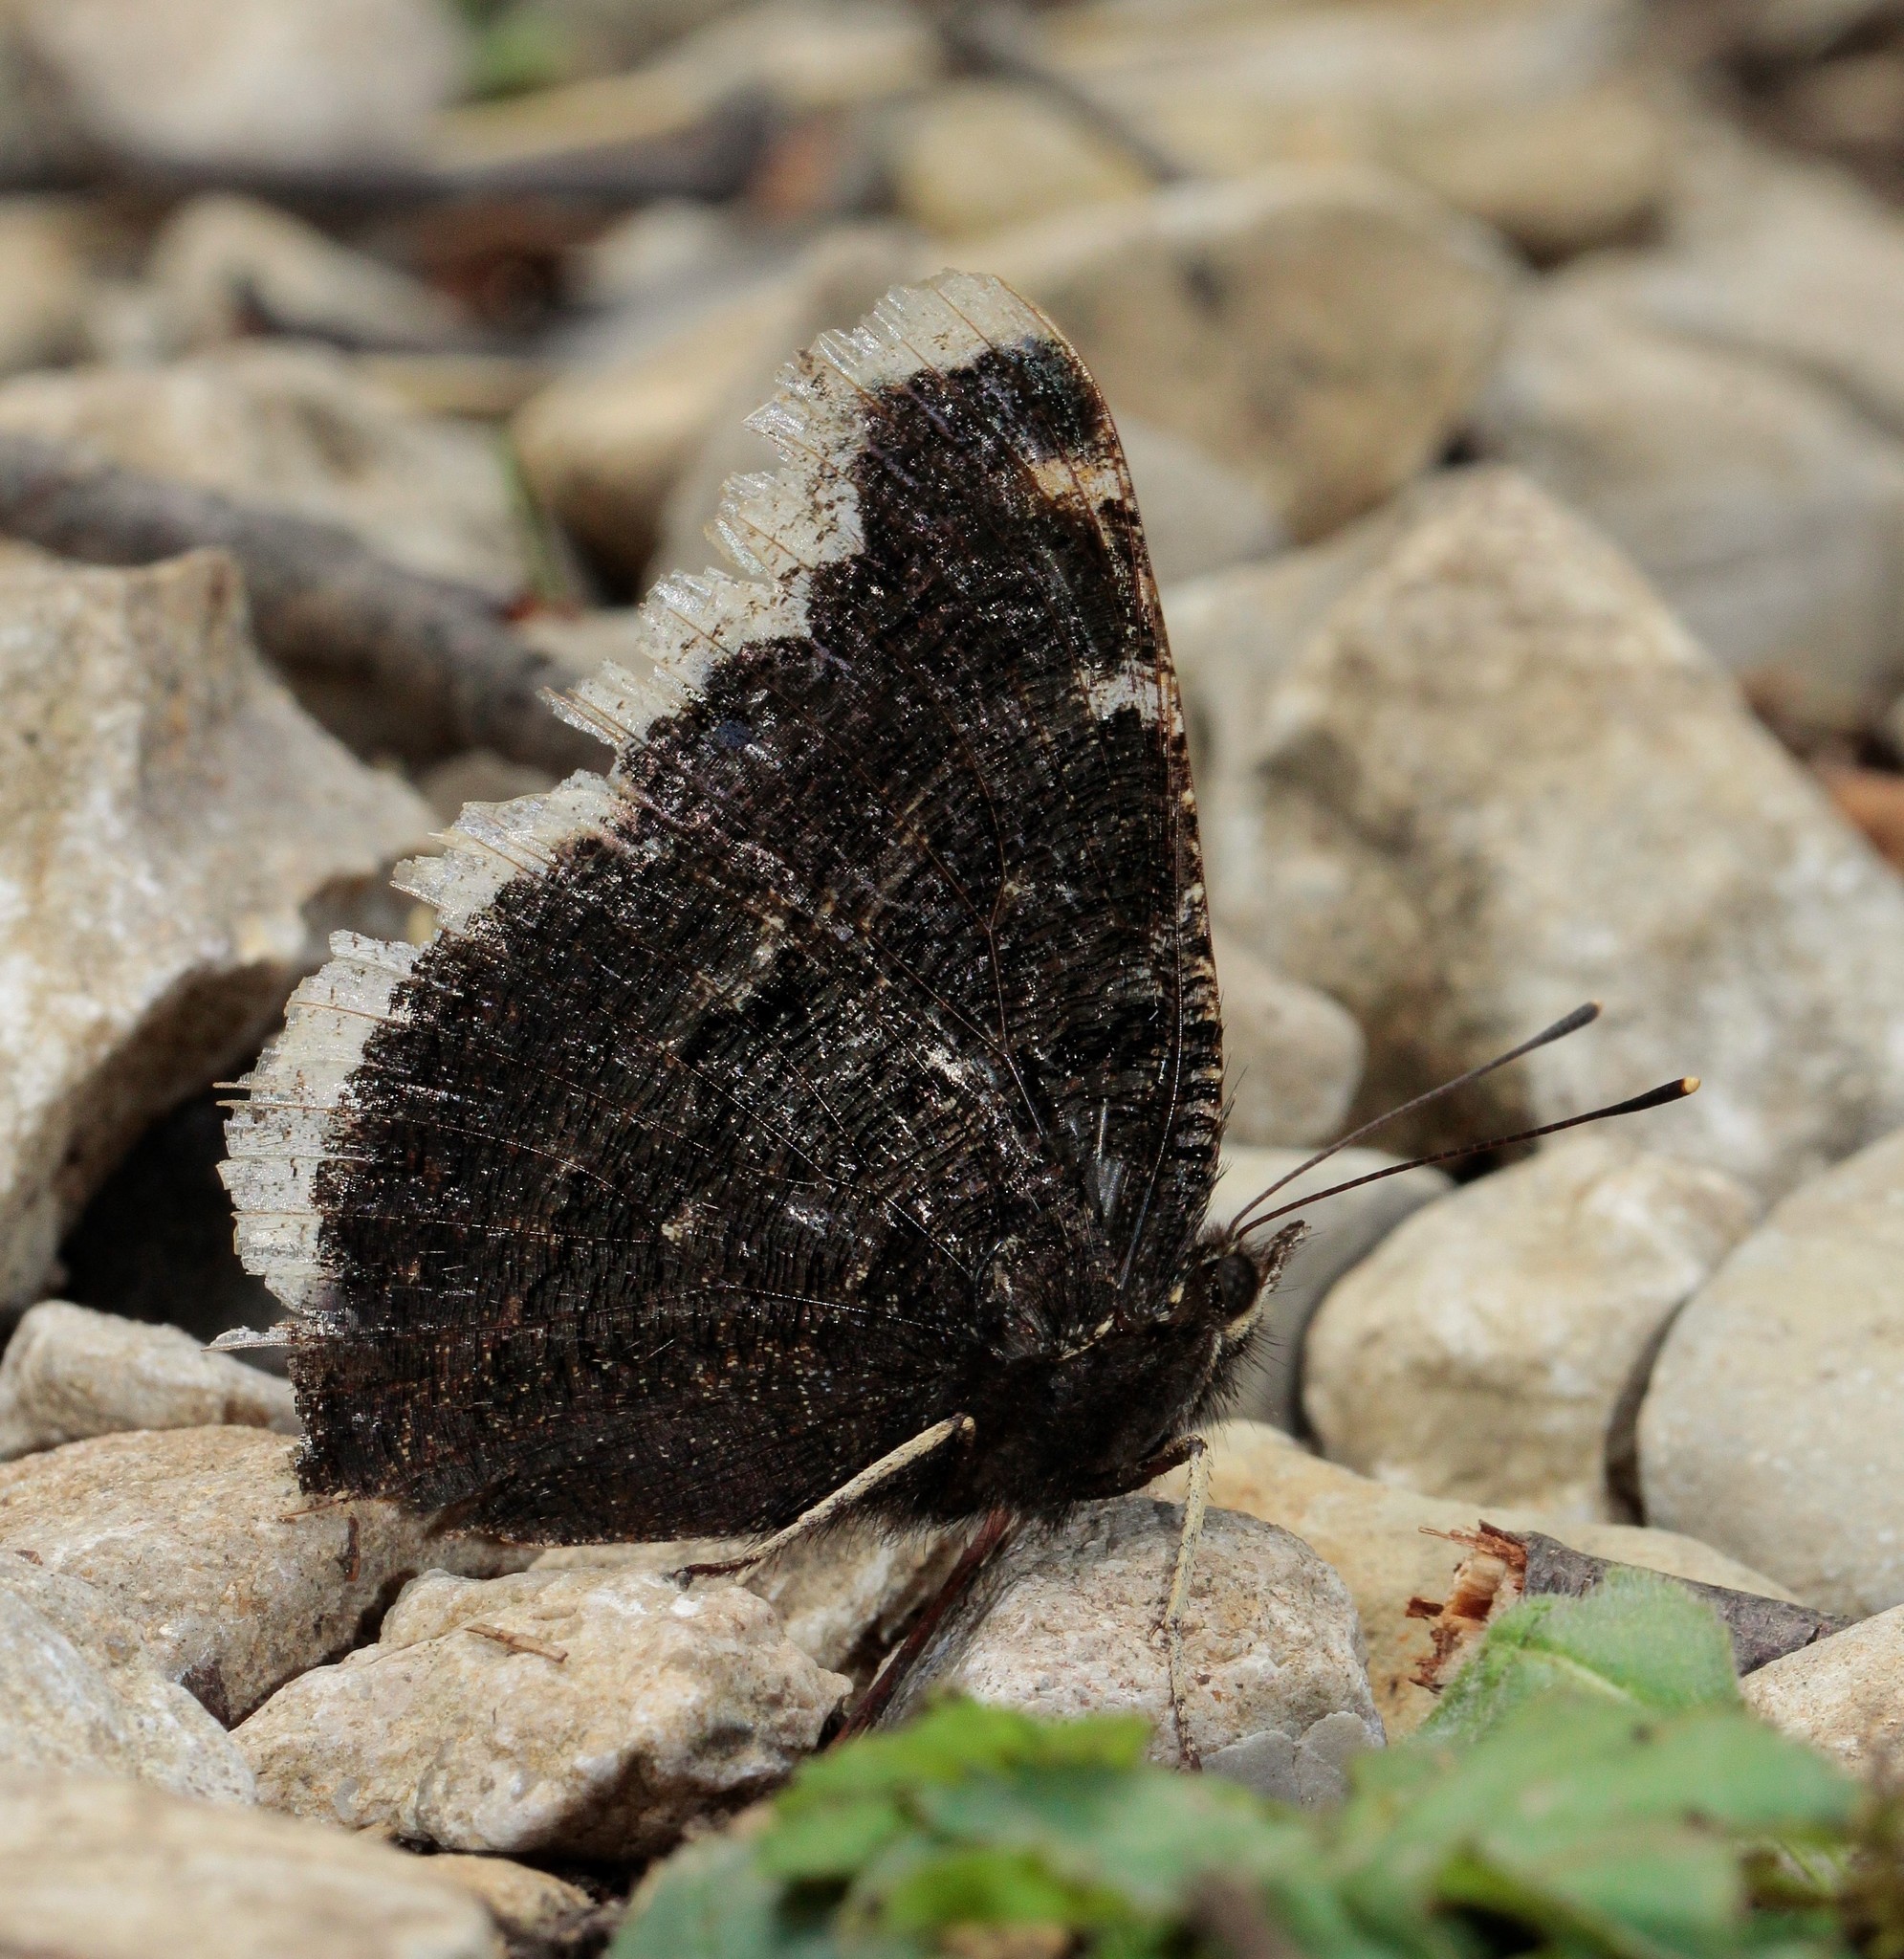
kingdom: Animalia
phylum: Arthropoda
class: Insecta
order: Lepidoptera
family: Nymphalidae
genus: Nymphalis
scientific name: Nymphalis antiopa
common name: Camberwell beauty
